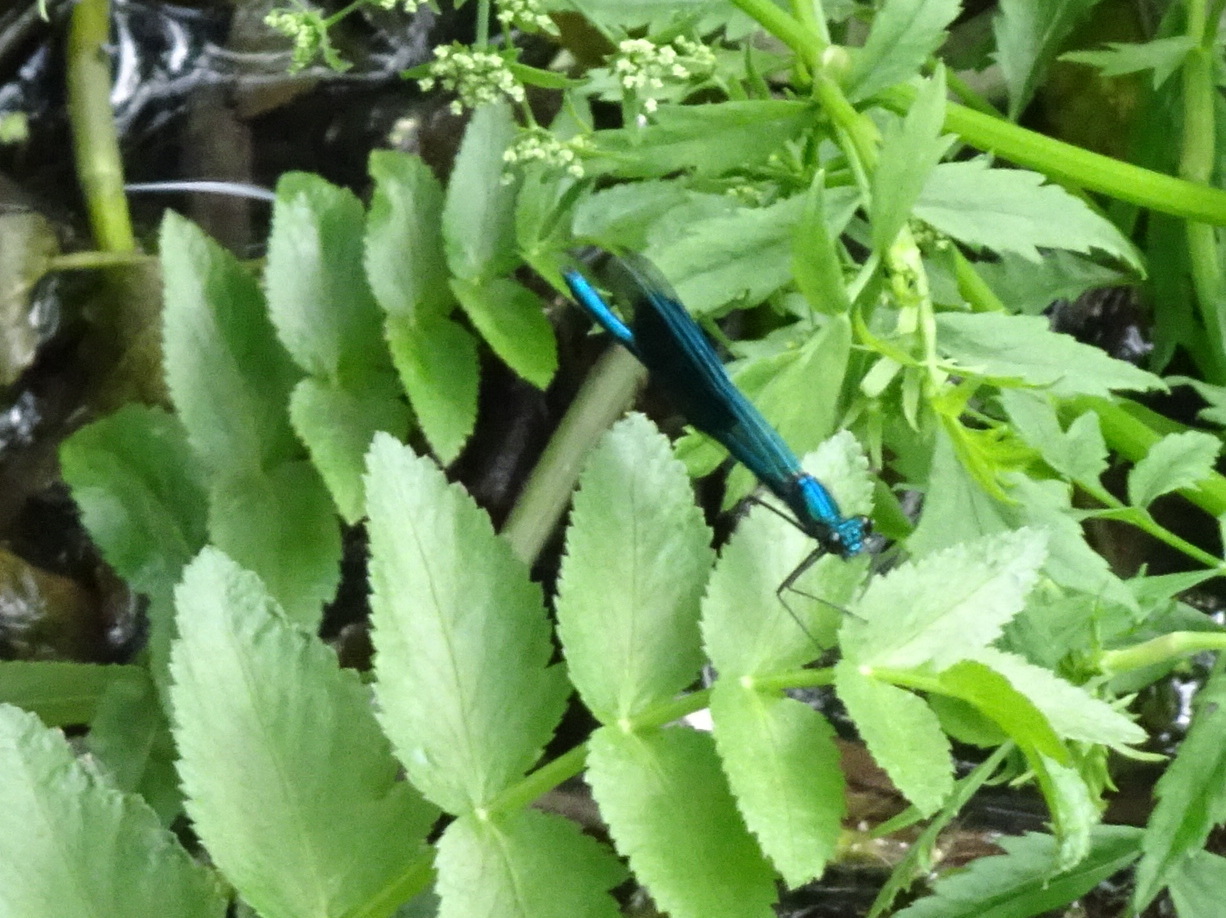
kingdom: Animalia
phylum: Arthropoda
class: Insecta
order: Odonata
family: Calopterygidae
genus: Calopteryx
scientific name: Calopteryx splendens
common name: Banded demoiselle
